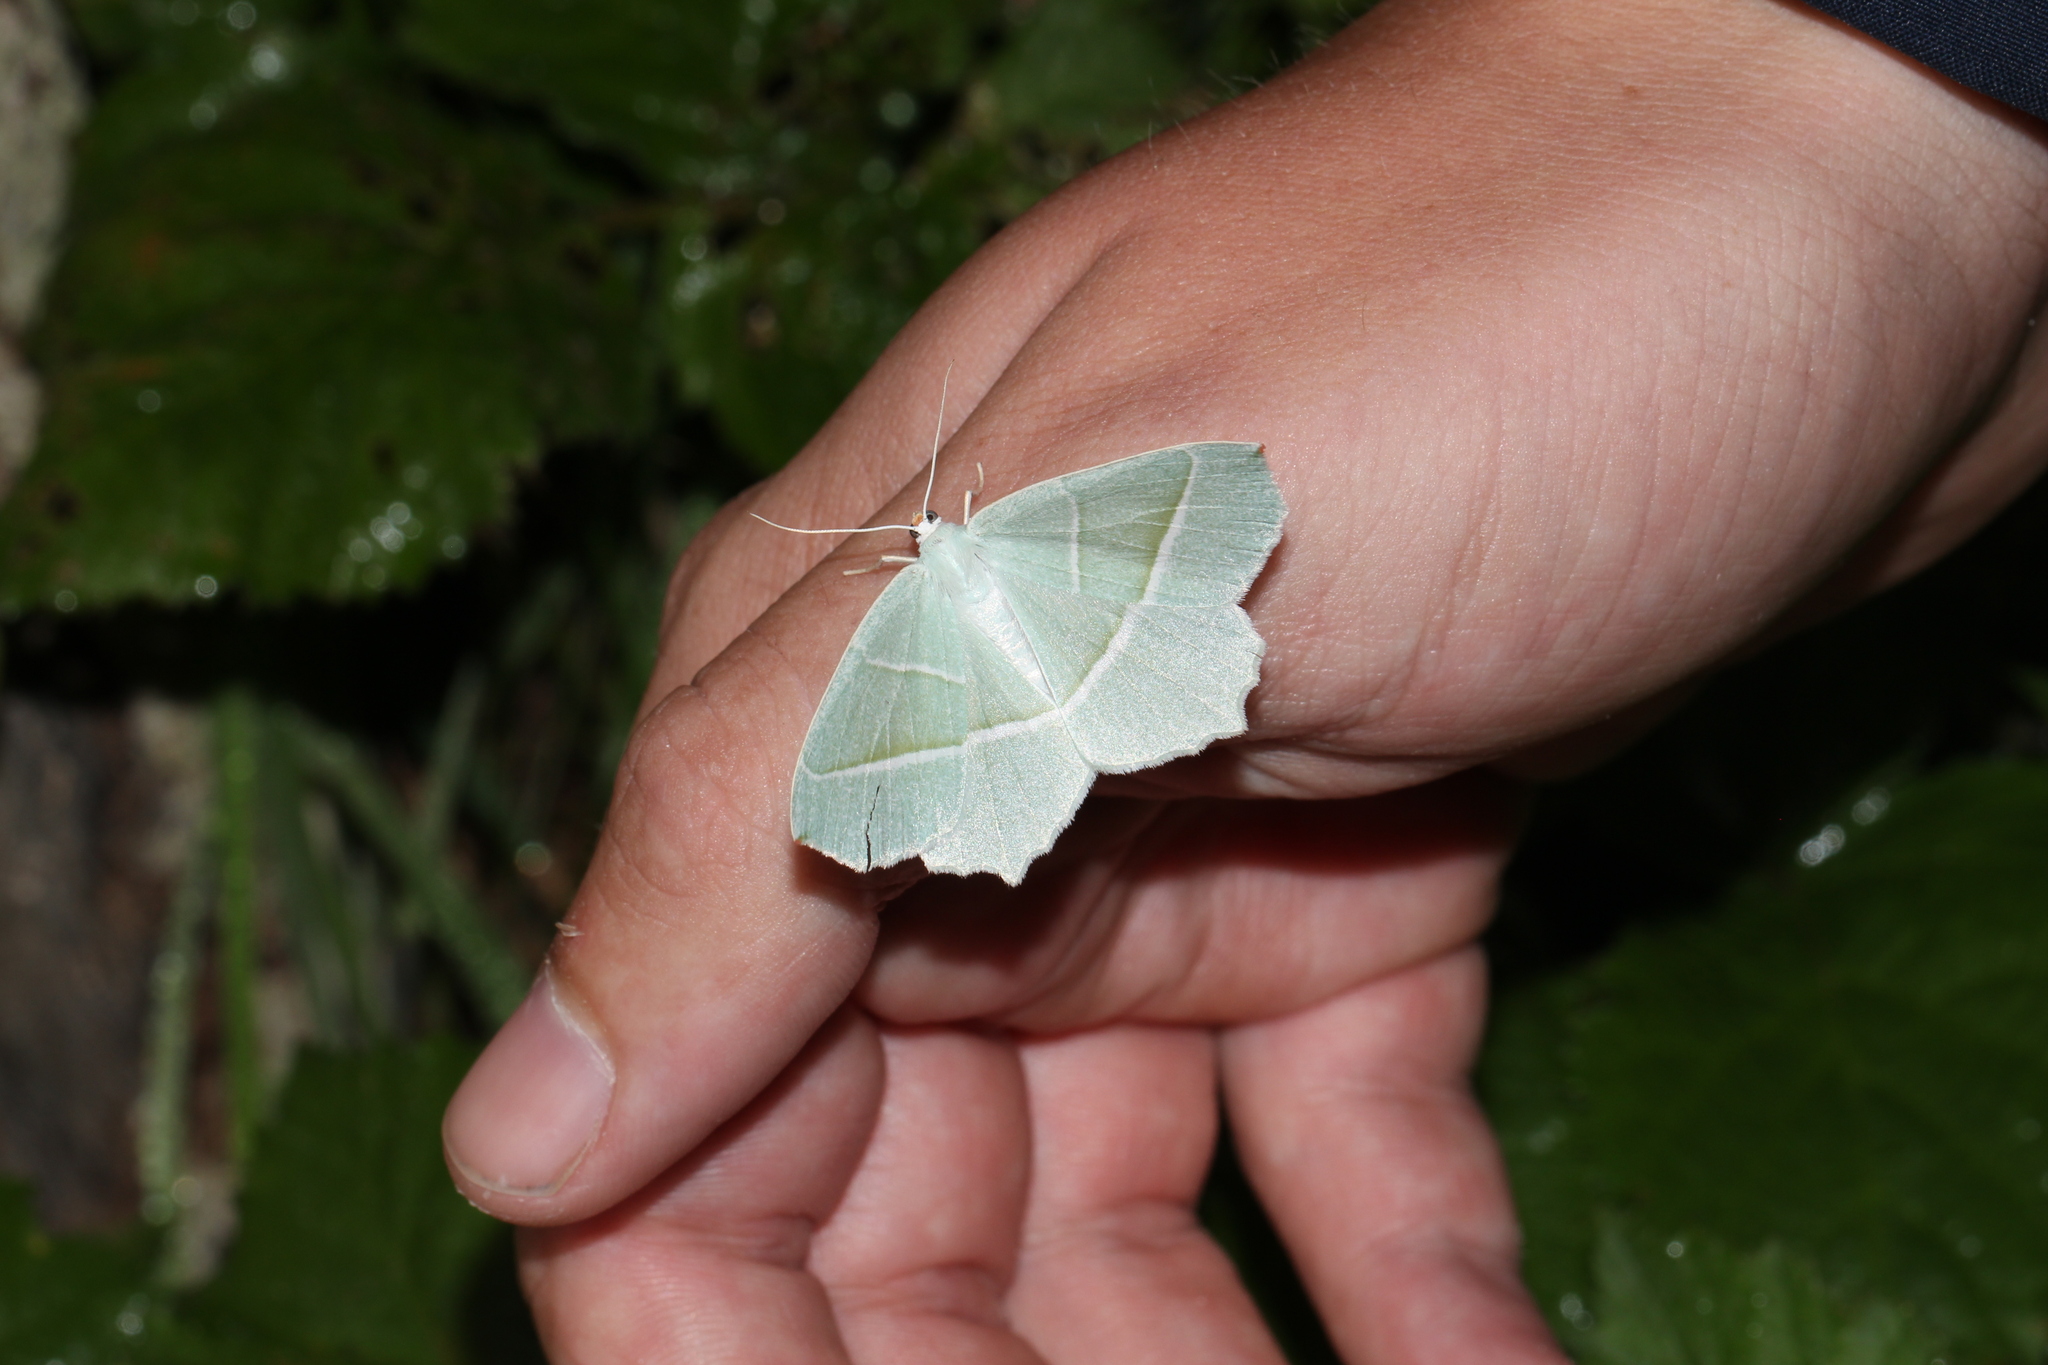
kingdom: Animalia
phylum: Arthropoda
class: Insecta
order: Lepidoptera
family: Geometridae
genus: Campaea
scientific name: Campaea margaritaria
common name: Light emerald
